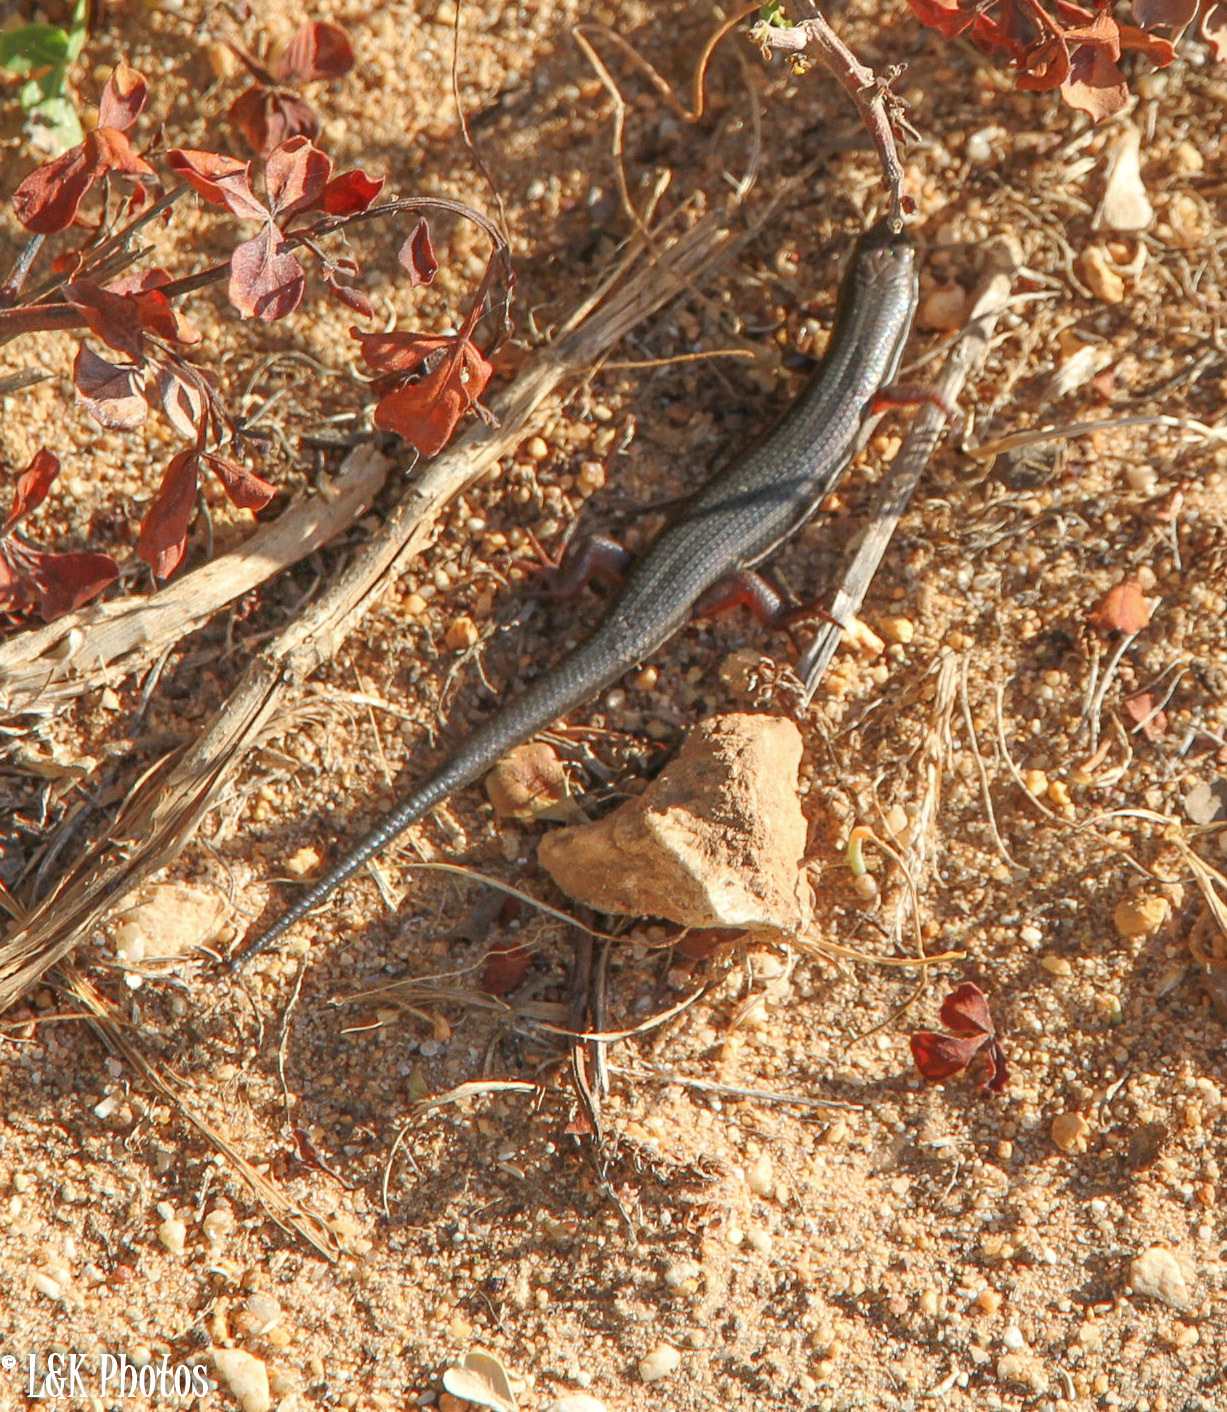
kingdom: Animalia
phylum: Chordata
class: Squamata
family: Scincidae
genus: Trachylepis
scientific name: Trachylepis homalocephala
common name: Red-sided skink
